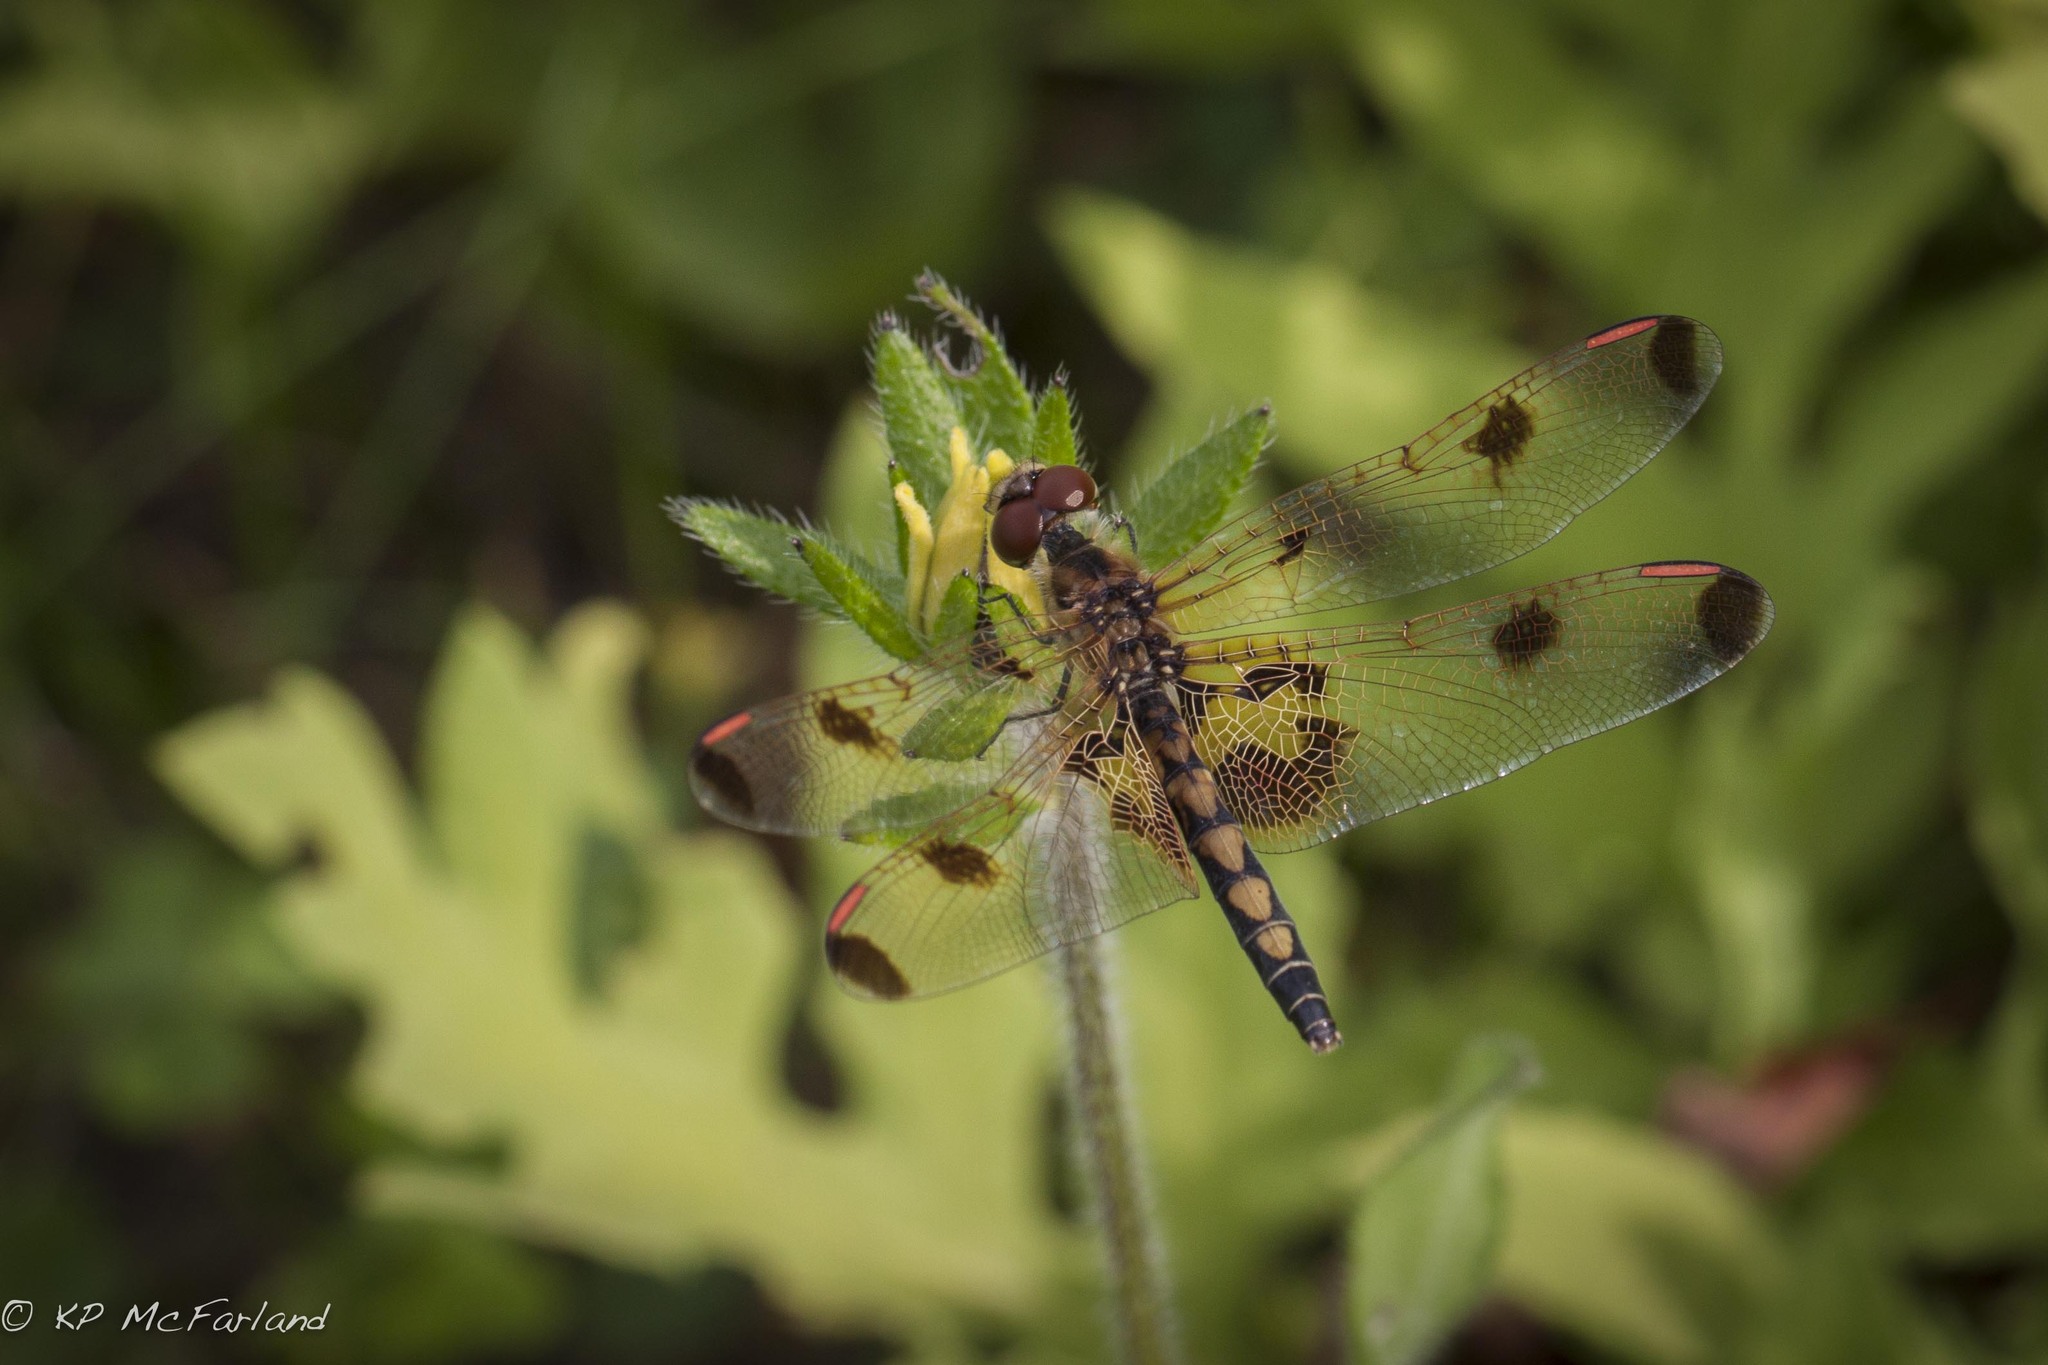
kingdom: Animalia
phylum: Arthropoda
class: Insecta
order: Odonata
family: Libellulidae
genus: Celithemis
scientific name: Celithemis elisa
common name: Calico pennant
